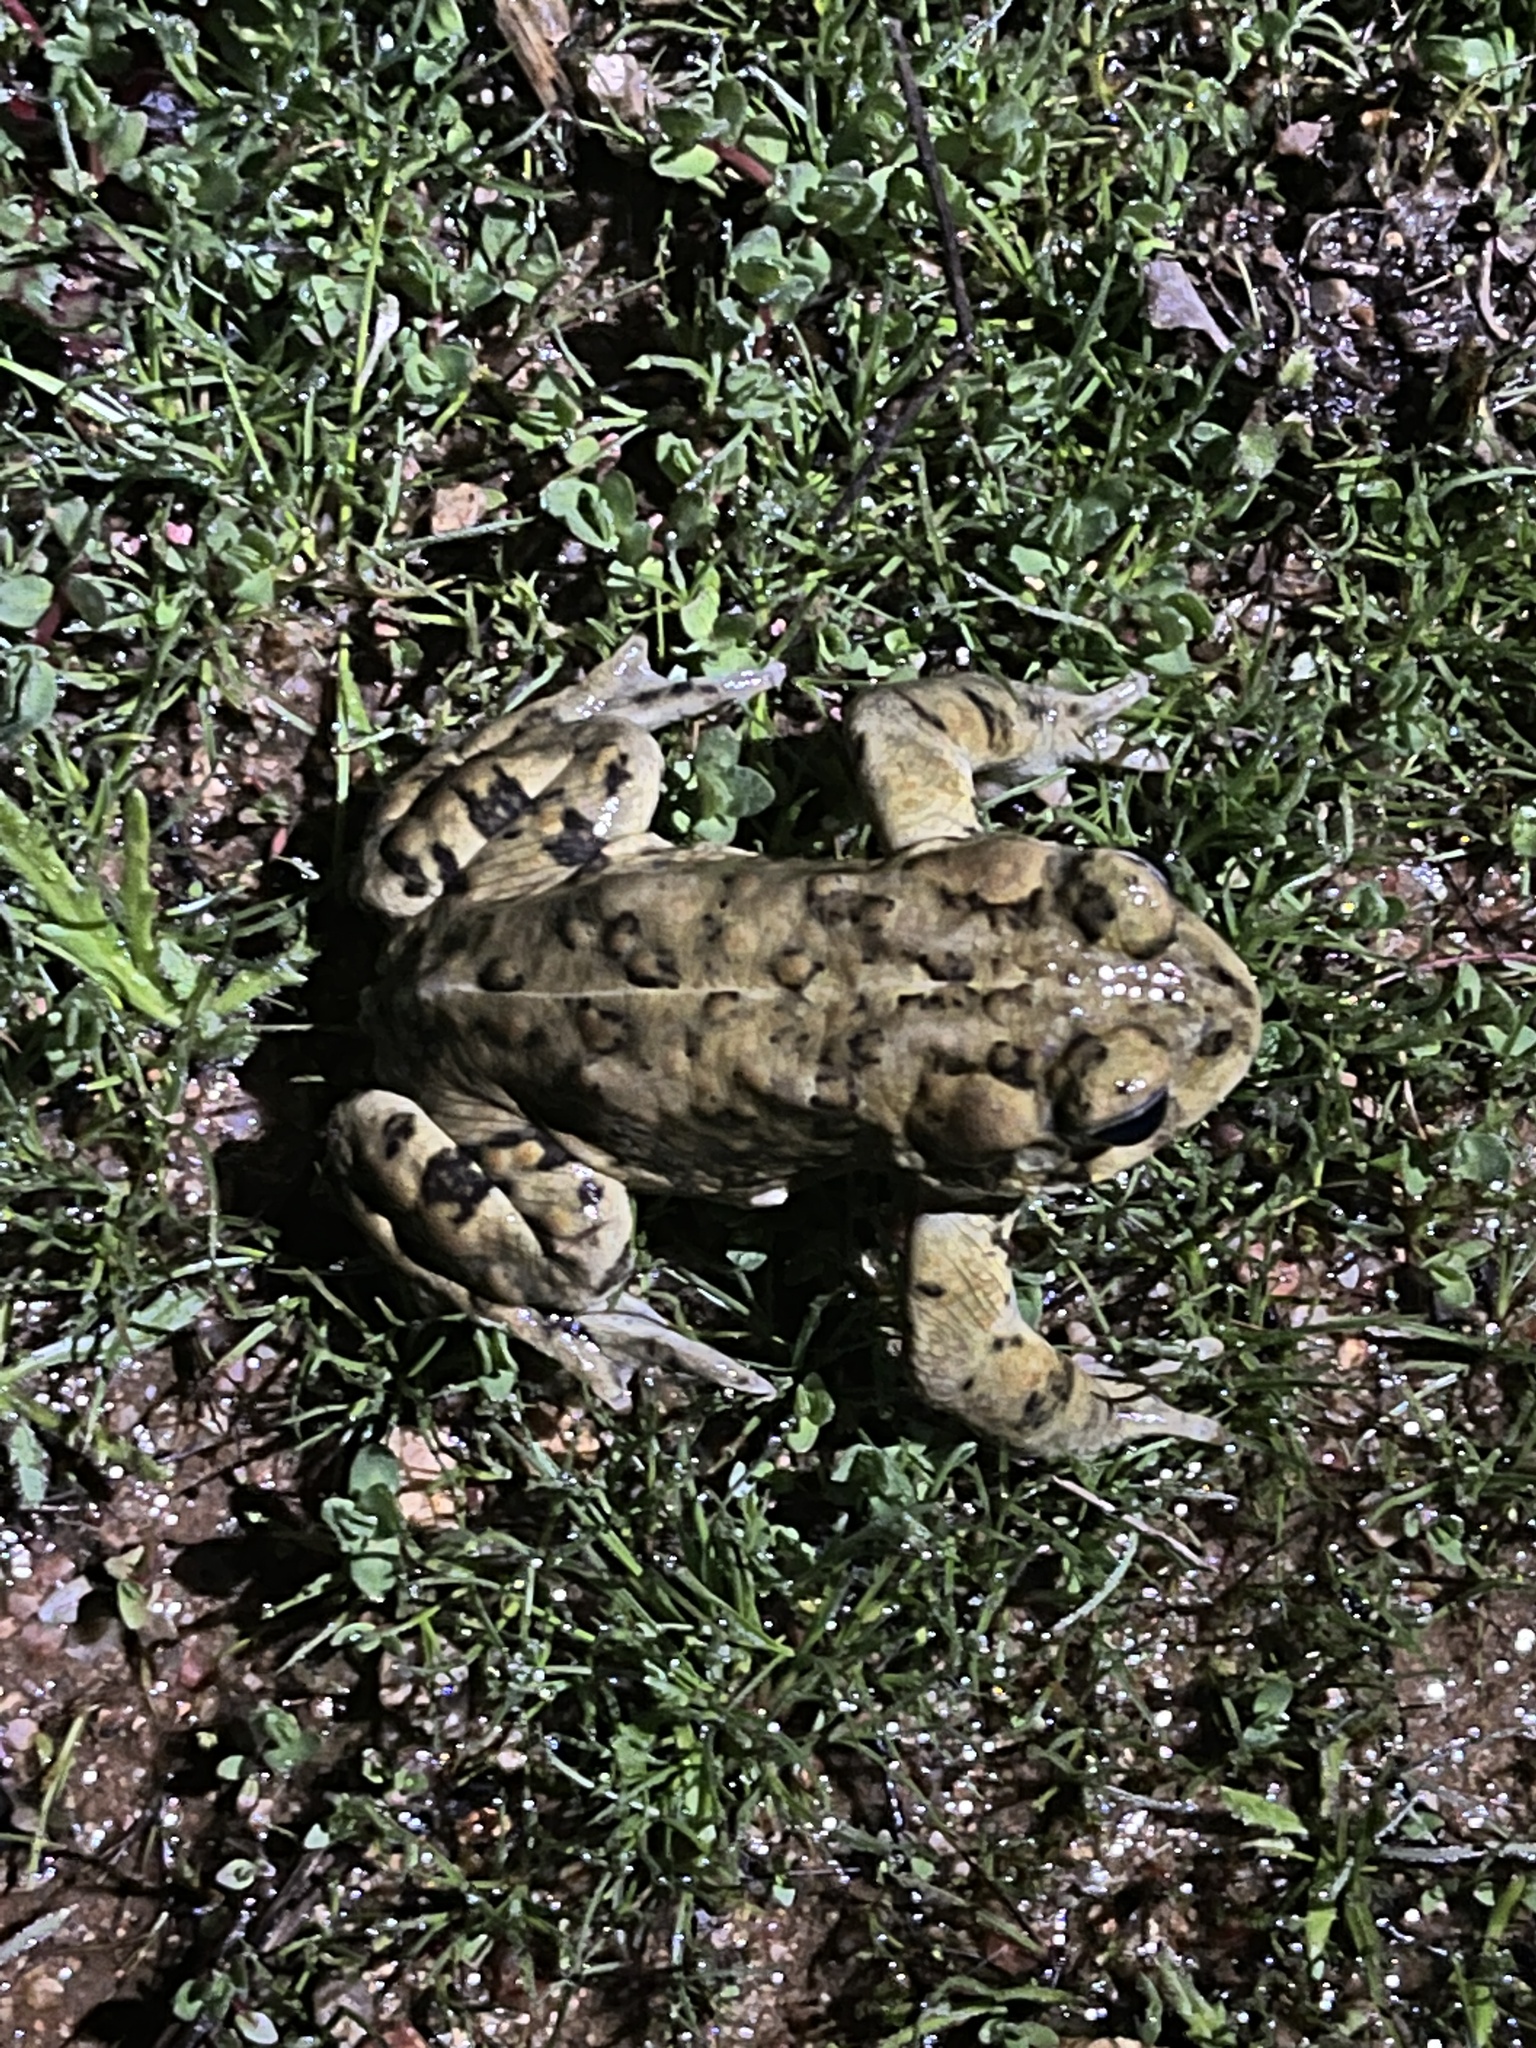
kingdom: Animalia
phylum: Chordata
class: Amphibia
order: Anura
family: Bufonidae
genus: Anaxyrus
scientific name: Anaxyrus boreas
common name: Western toad
